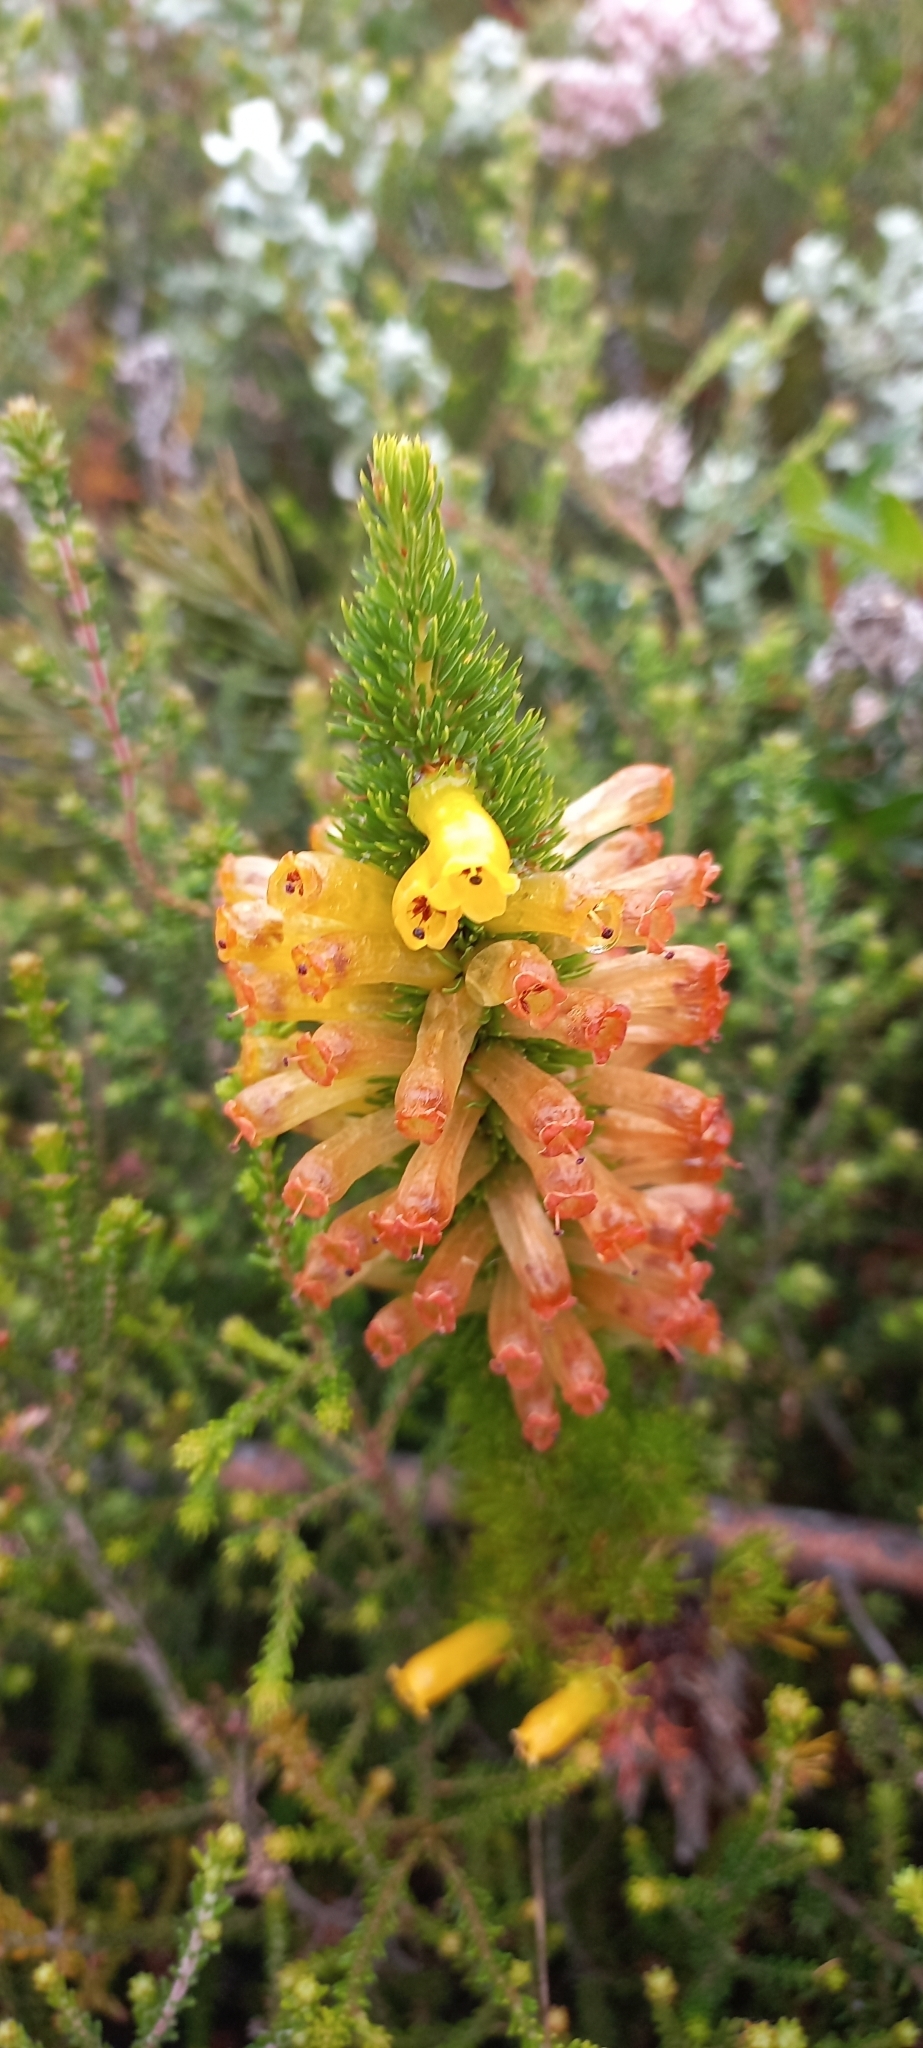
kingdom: Plantae
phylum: Tracheophyta
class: Magnoliopsida
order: Ericales
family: Ericaceae
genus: Erica
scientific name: Erica patersonia
